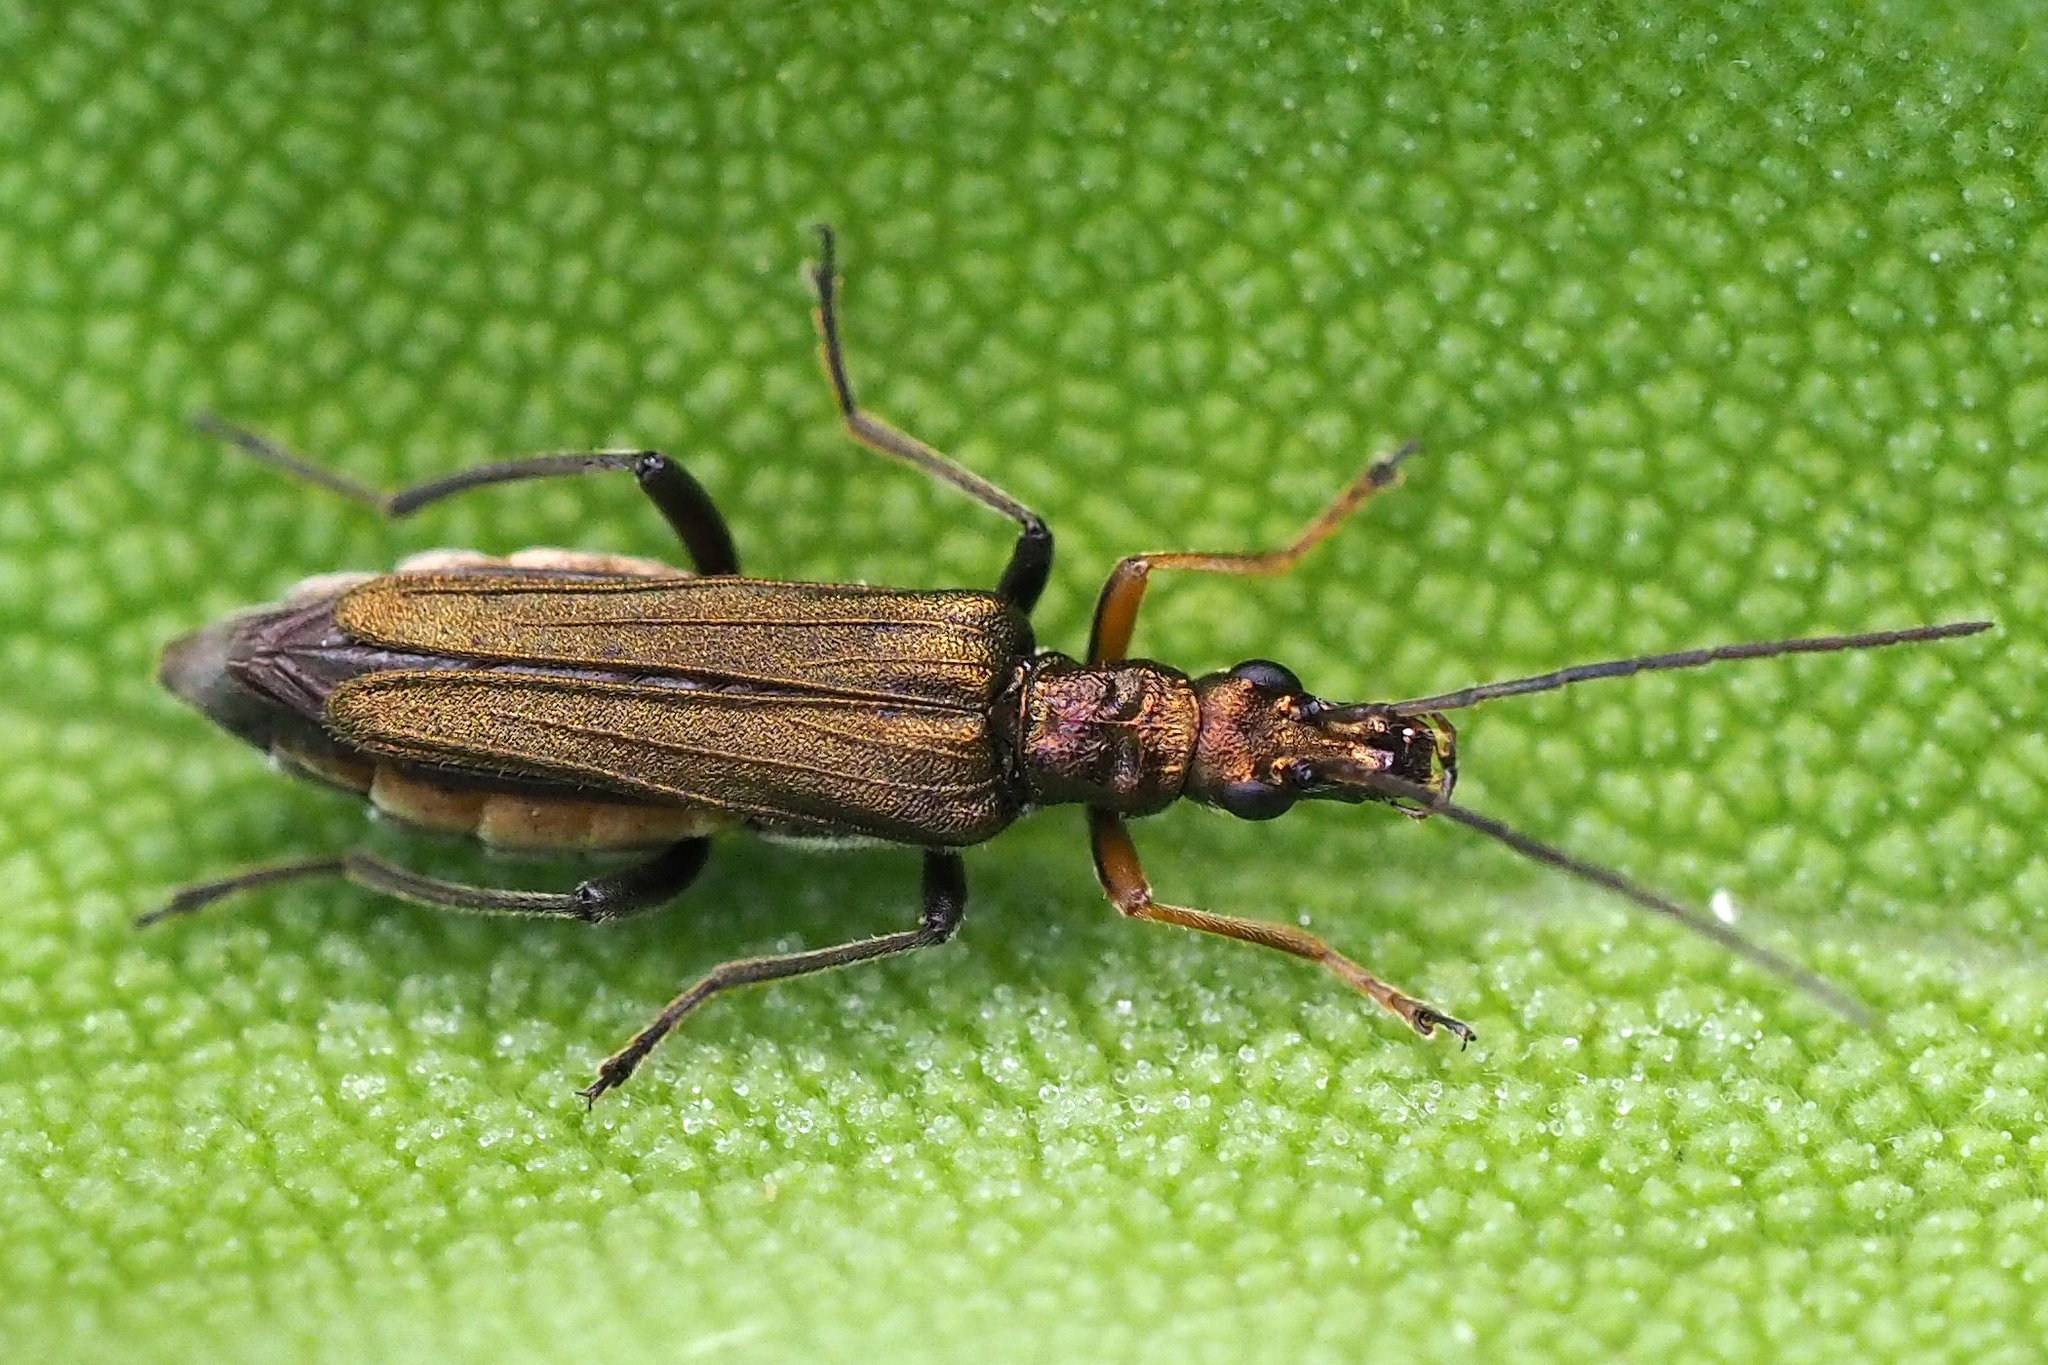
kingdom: Animalia
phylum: Arthropoda
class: Insecta
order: Coleoptera
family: Oedemeridae
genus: Oedemera
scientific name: Oedemera flavipes
